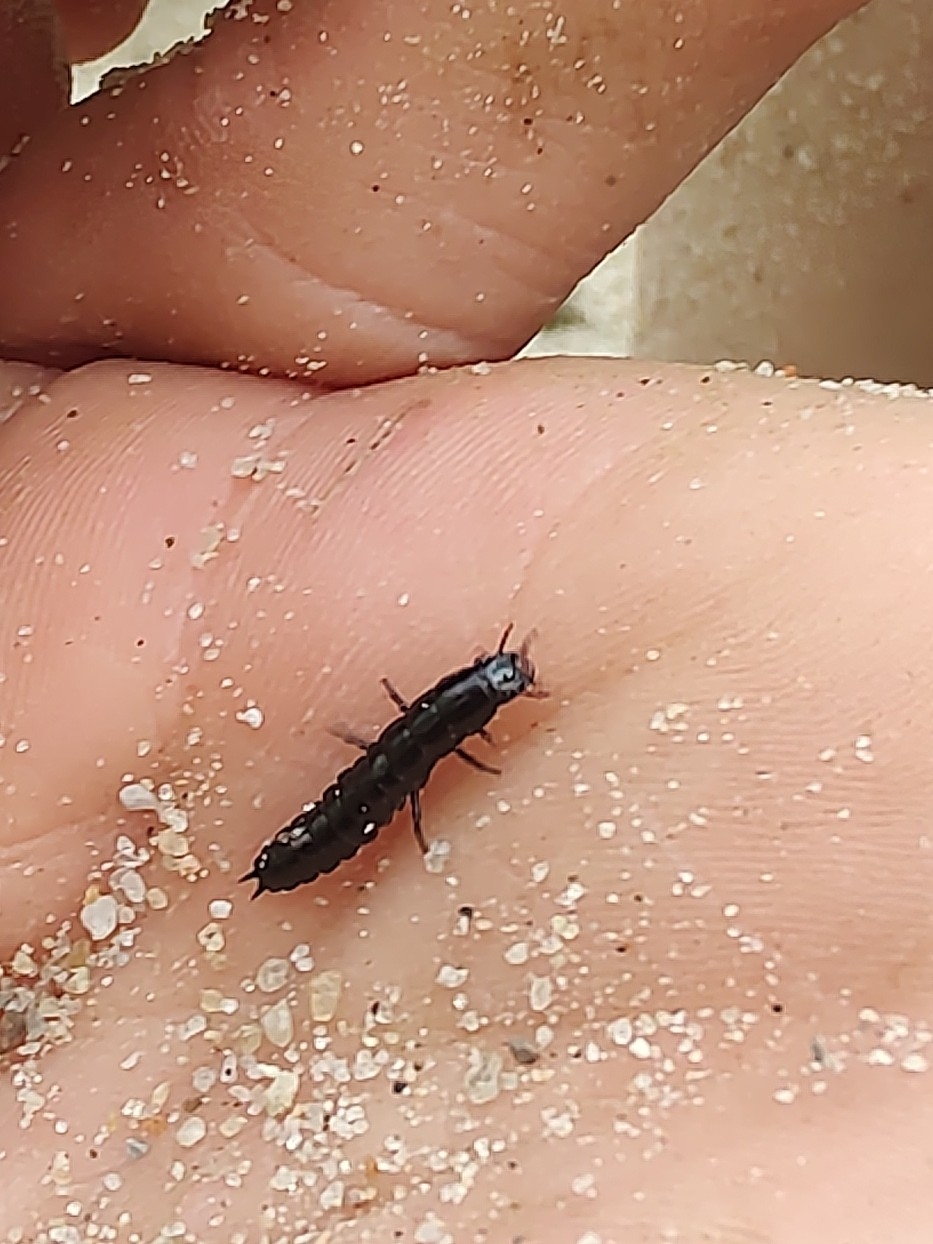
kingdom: Animalia
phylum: Arthropoda
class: Insecta
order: Coleoptera
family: Carabidae
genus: Carabus
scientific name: Carabus
